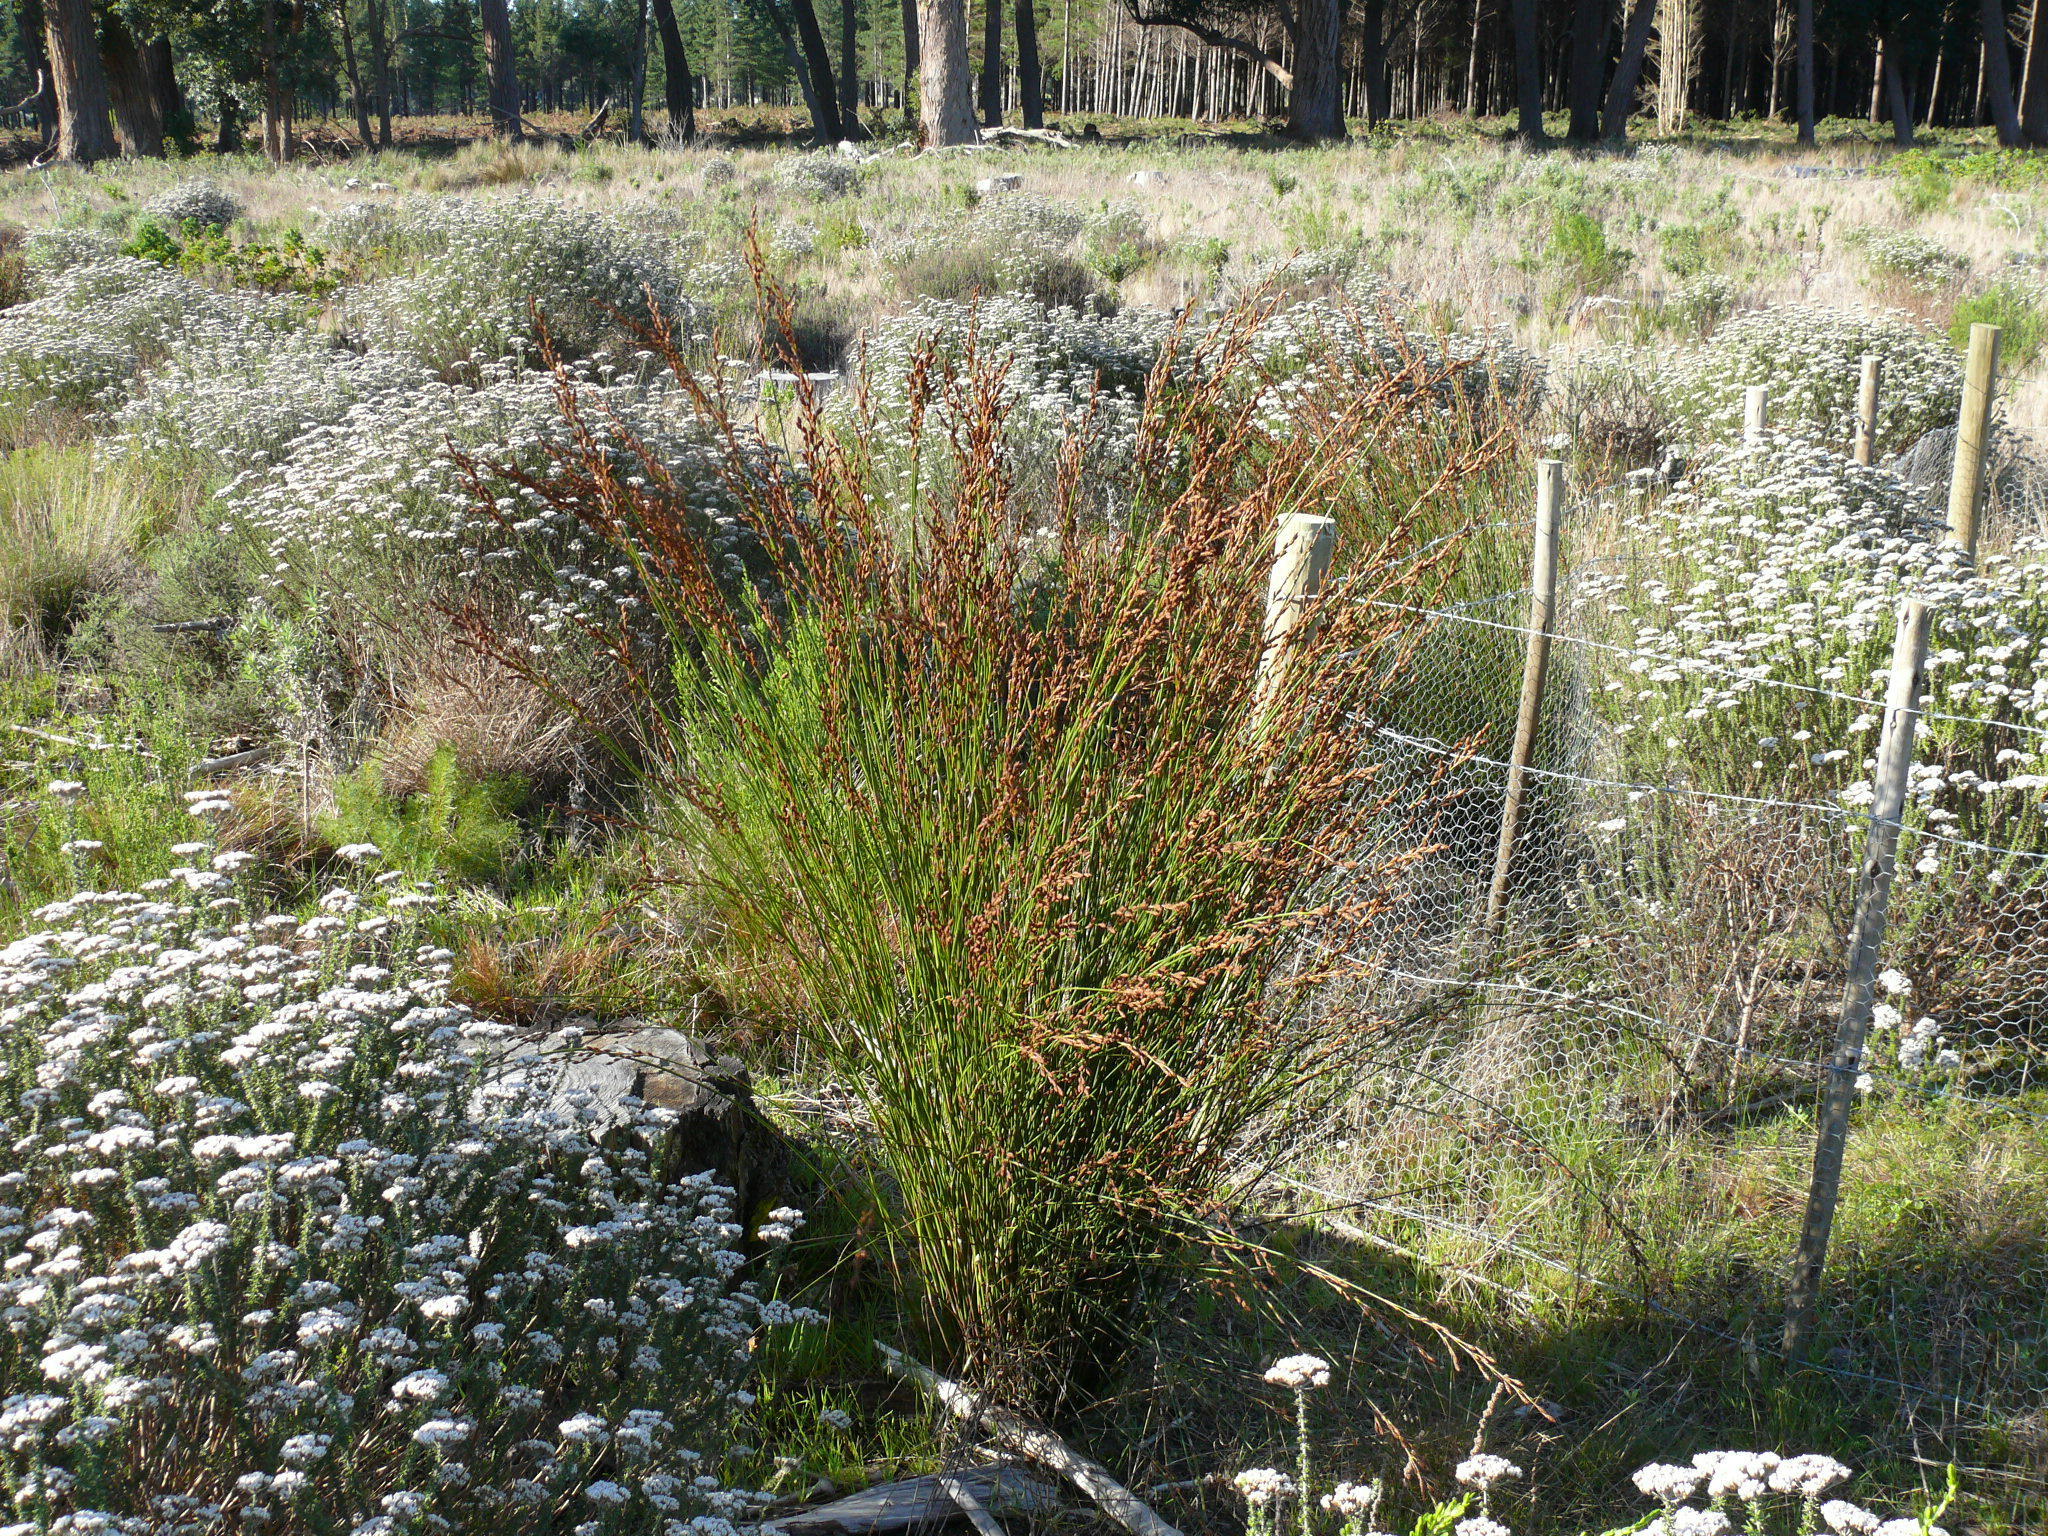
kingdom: Plantae
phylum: Tracheophyta
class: Liliopsida
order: Poales
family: Restionaceae
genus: Restio
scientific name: Restio bifurcus
